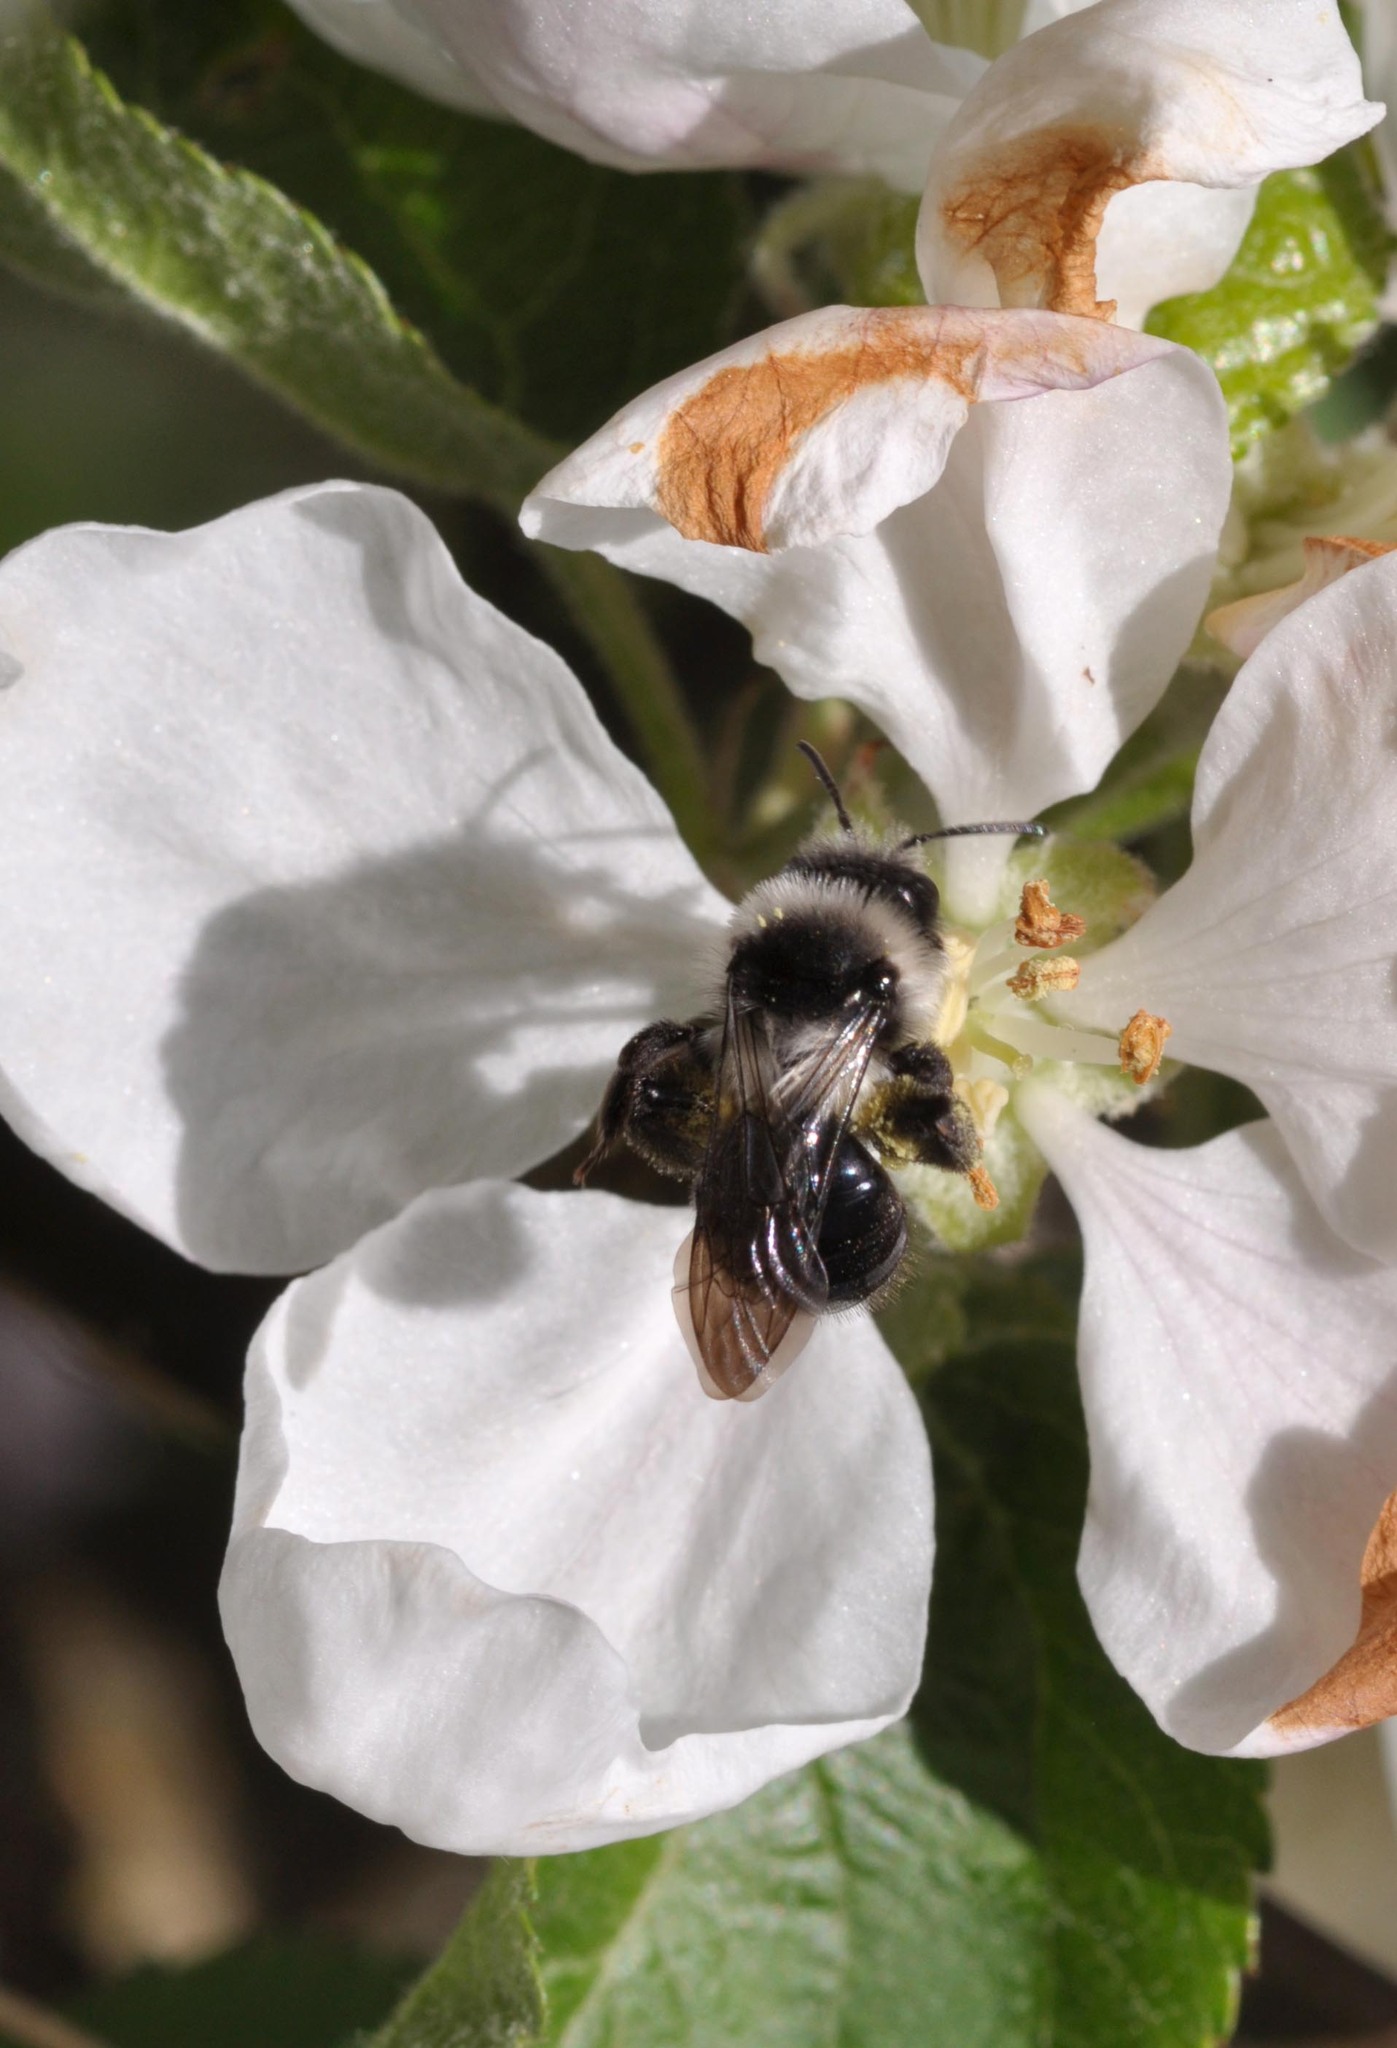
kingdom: Animalia
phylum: Arthropoda
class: Insecta
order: Hymenoptera
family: Andrenidae
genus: Andrena
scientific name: Andrena cineraria
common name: Ashy mining bee
